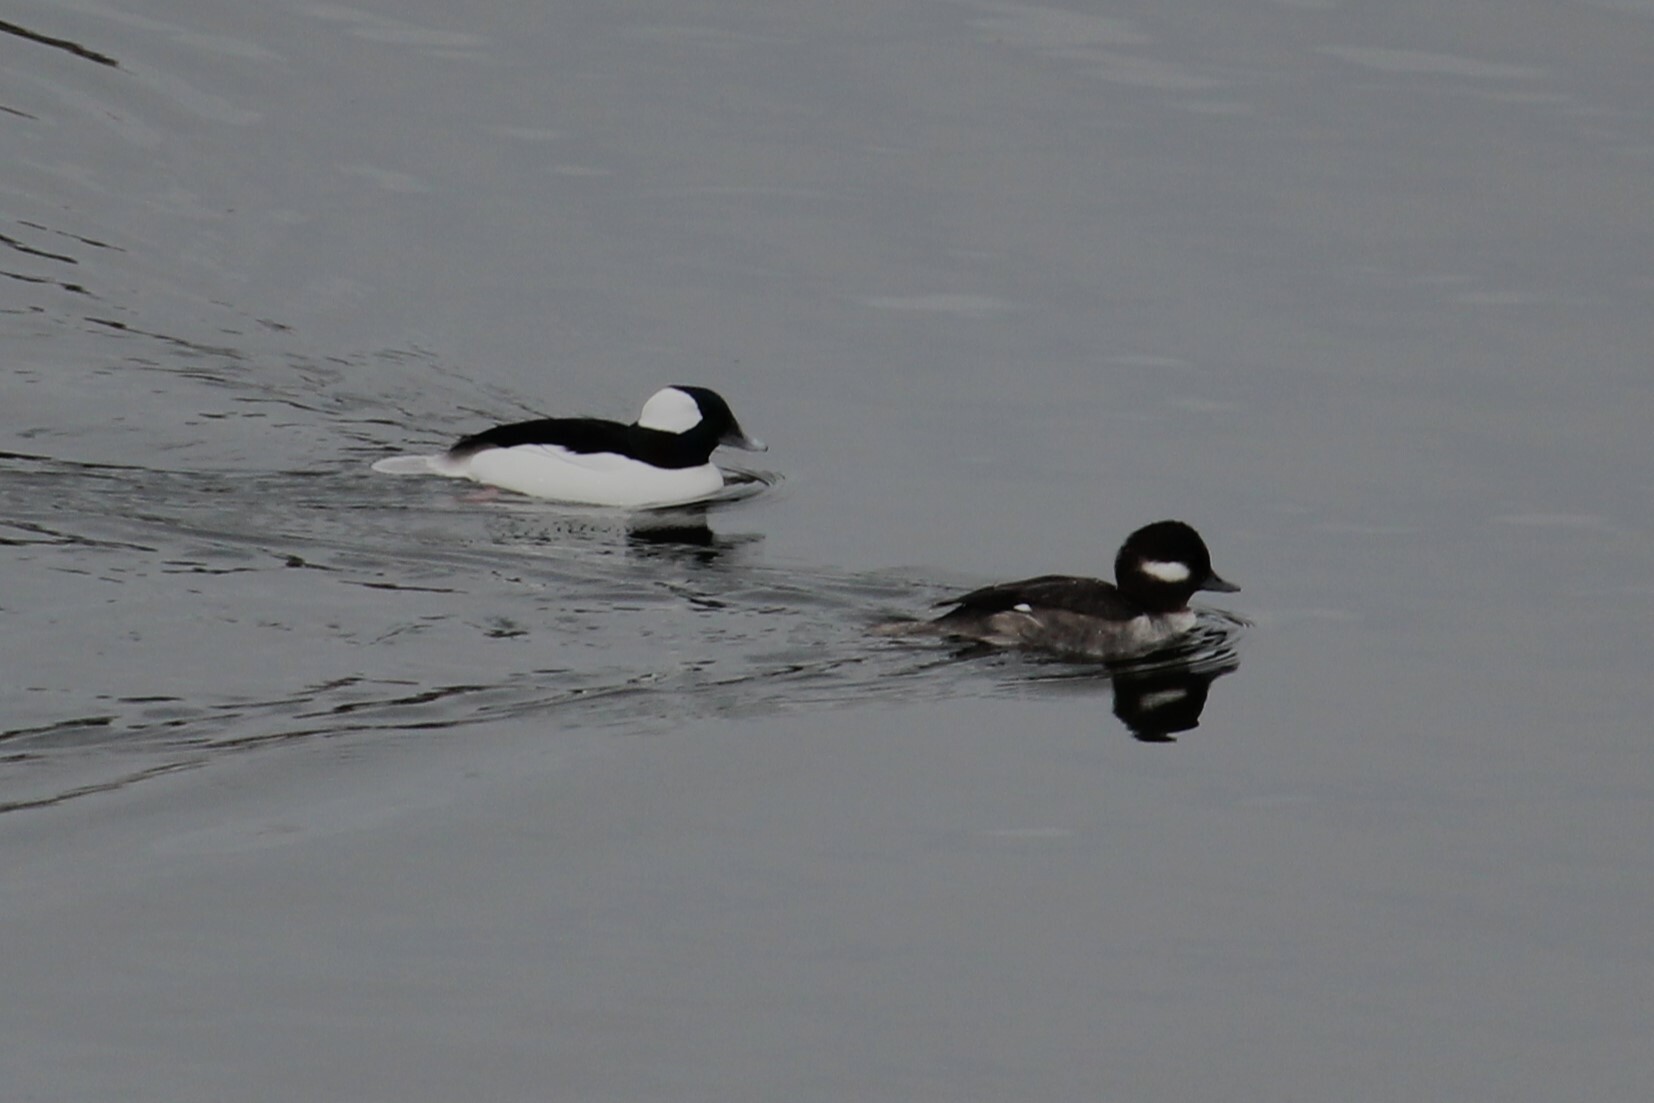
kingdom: Animalia
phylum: Chordata
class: Aves
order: Anseriformes
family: Anatidae
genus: Bucephala
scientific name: Bucephala albeola
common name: Bufflehead
